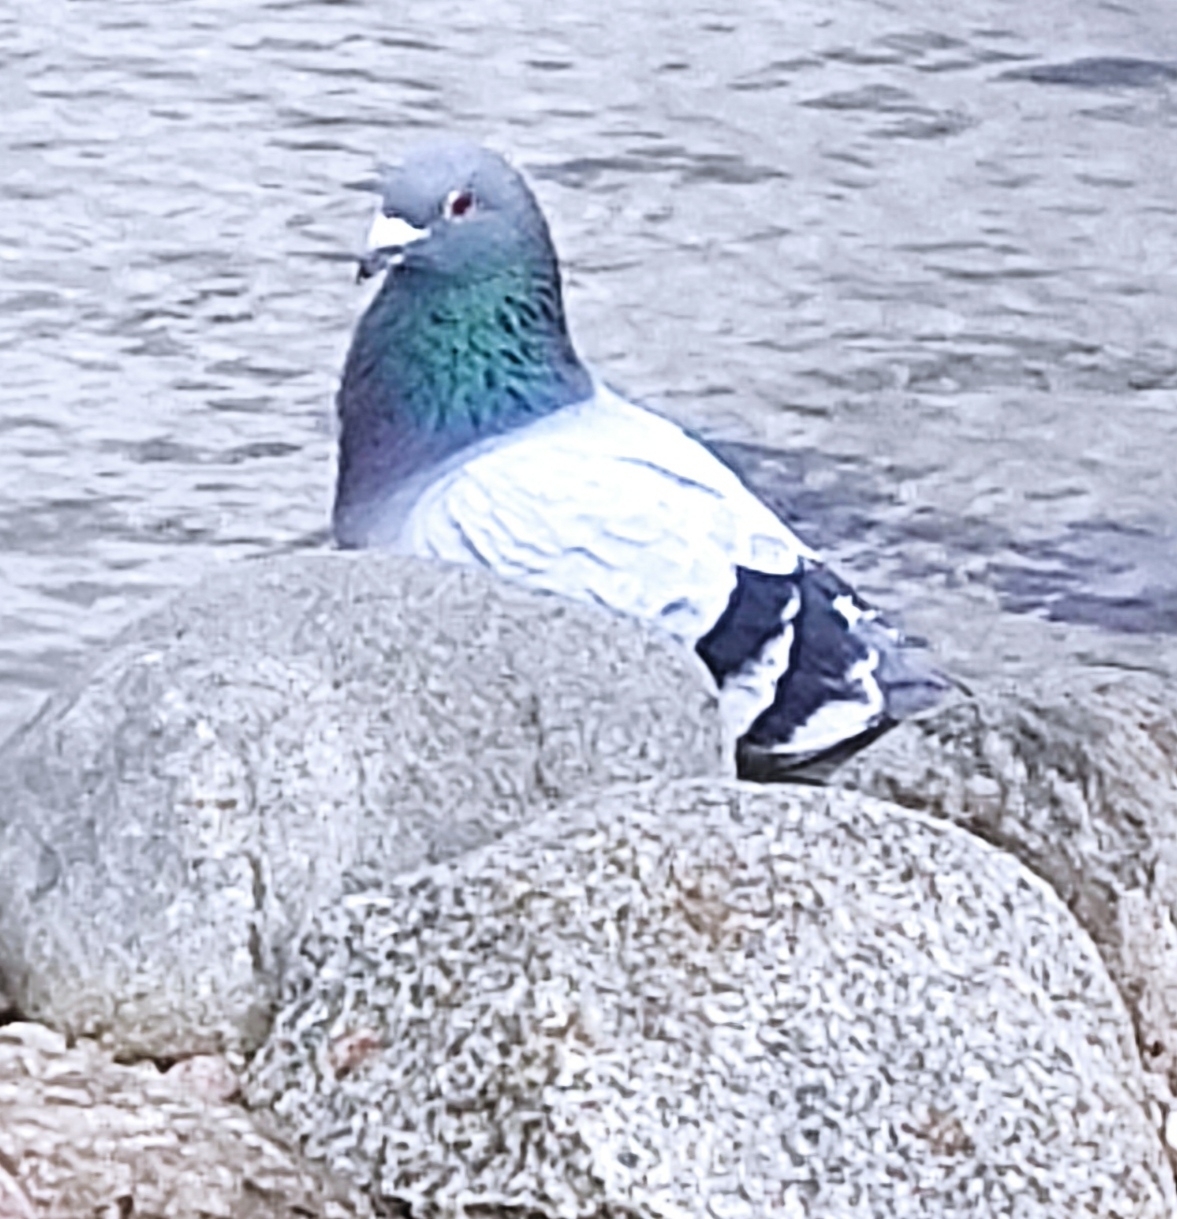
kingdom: Animalia
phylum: Chordata
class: Aves
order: Columbiformes
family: Columbidae
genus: Columba
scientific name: Columba livia
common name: Rock pigeon
